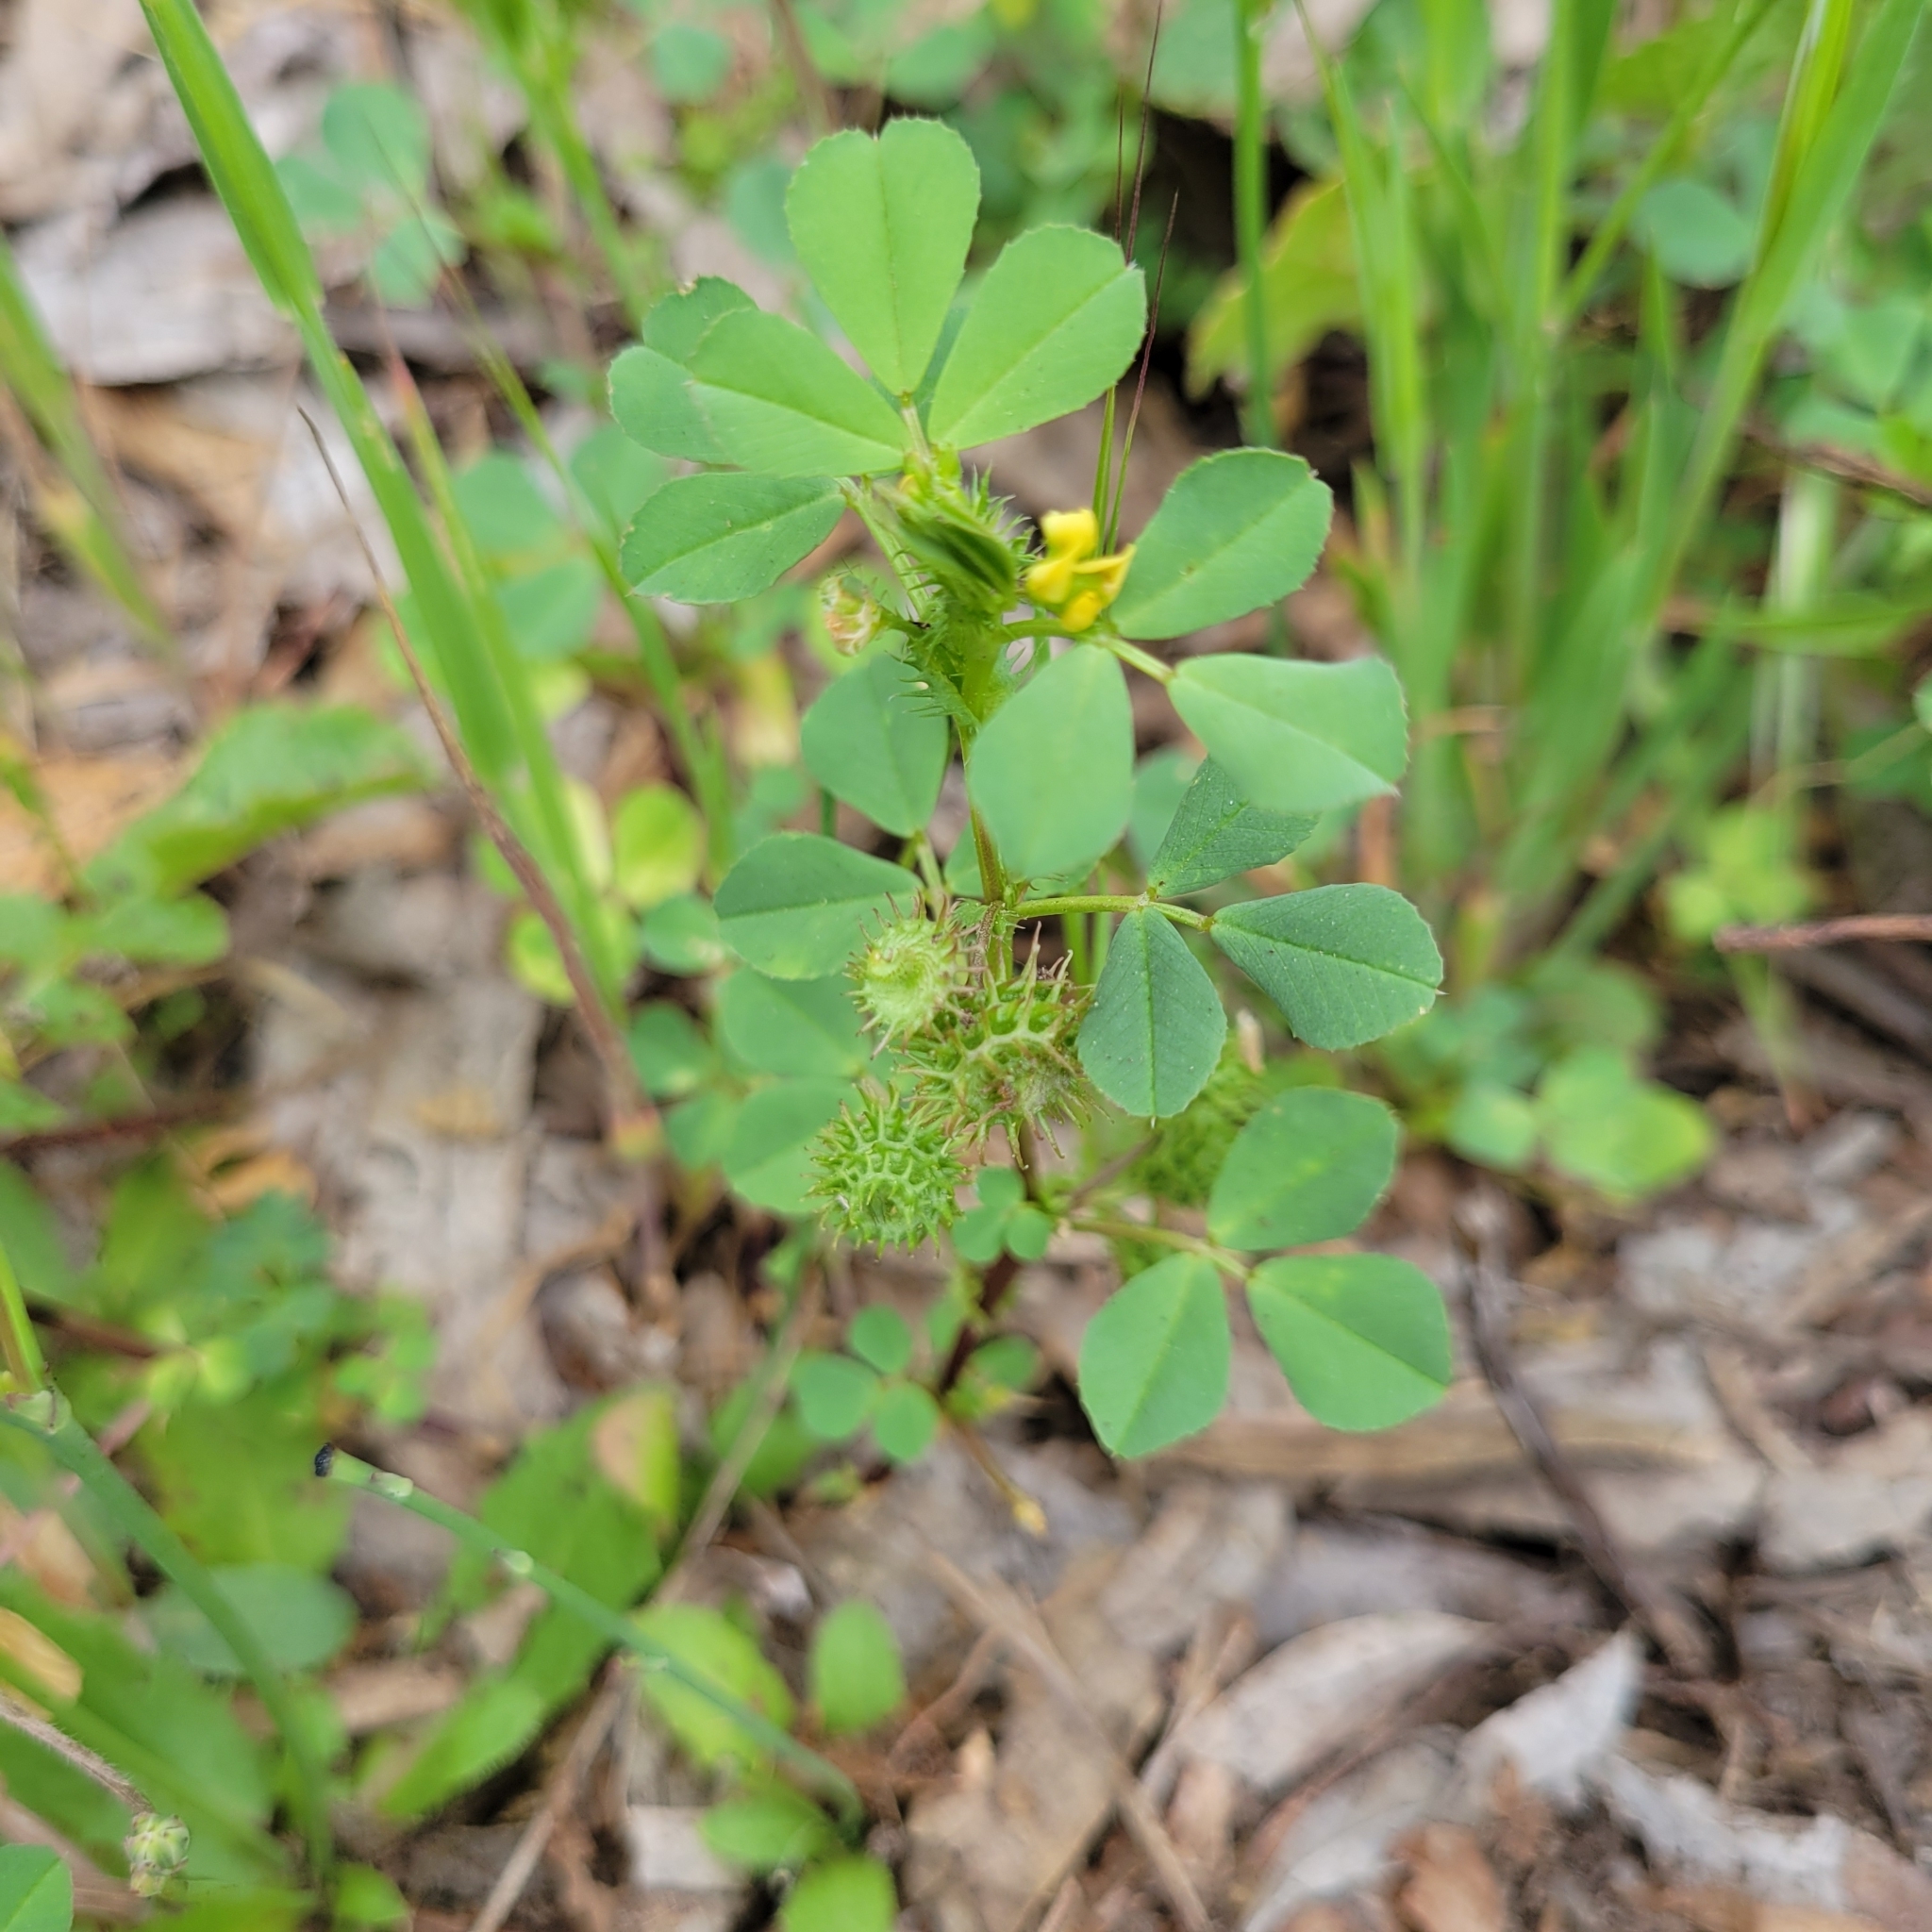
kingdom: Plantae
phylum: Tracheophyta
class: Magnoliopsida
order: Fabales
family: Fabaceae
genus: Medicago
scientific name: Medicago polymorpha
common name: Burclover
